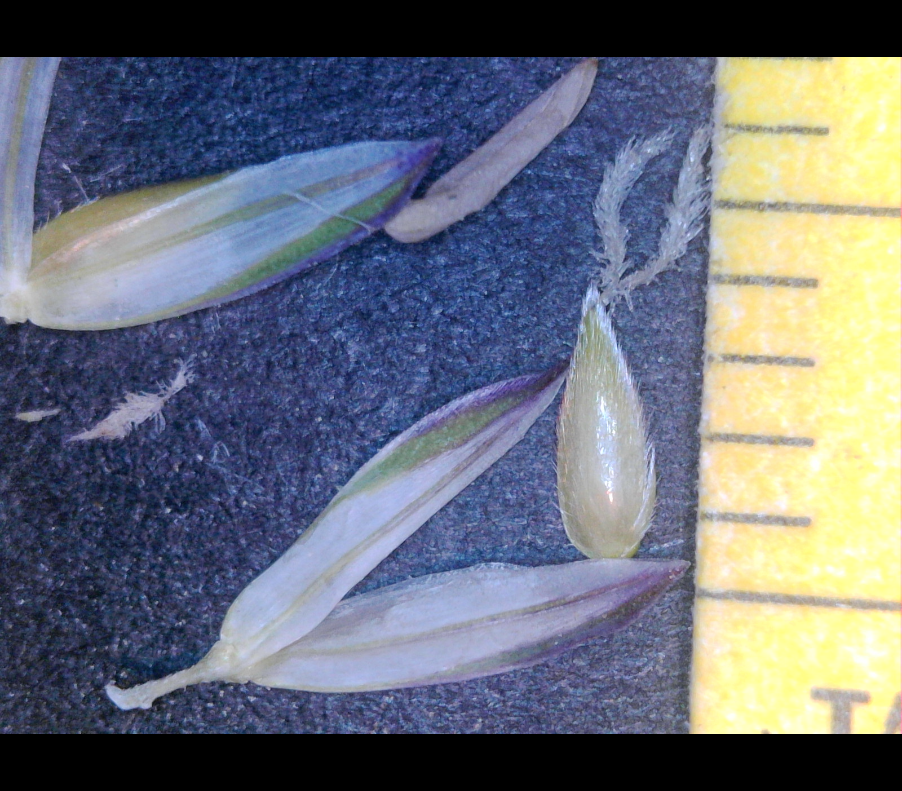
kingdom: Plantae
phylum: Tracheophyta
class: Liliopsida
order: Poales
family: Poaceae
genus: Phalaris
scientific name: Phalaris aquatica
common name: Bulbous canary-grass
